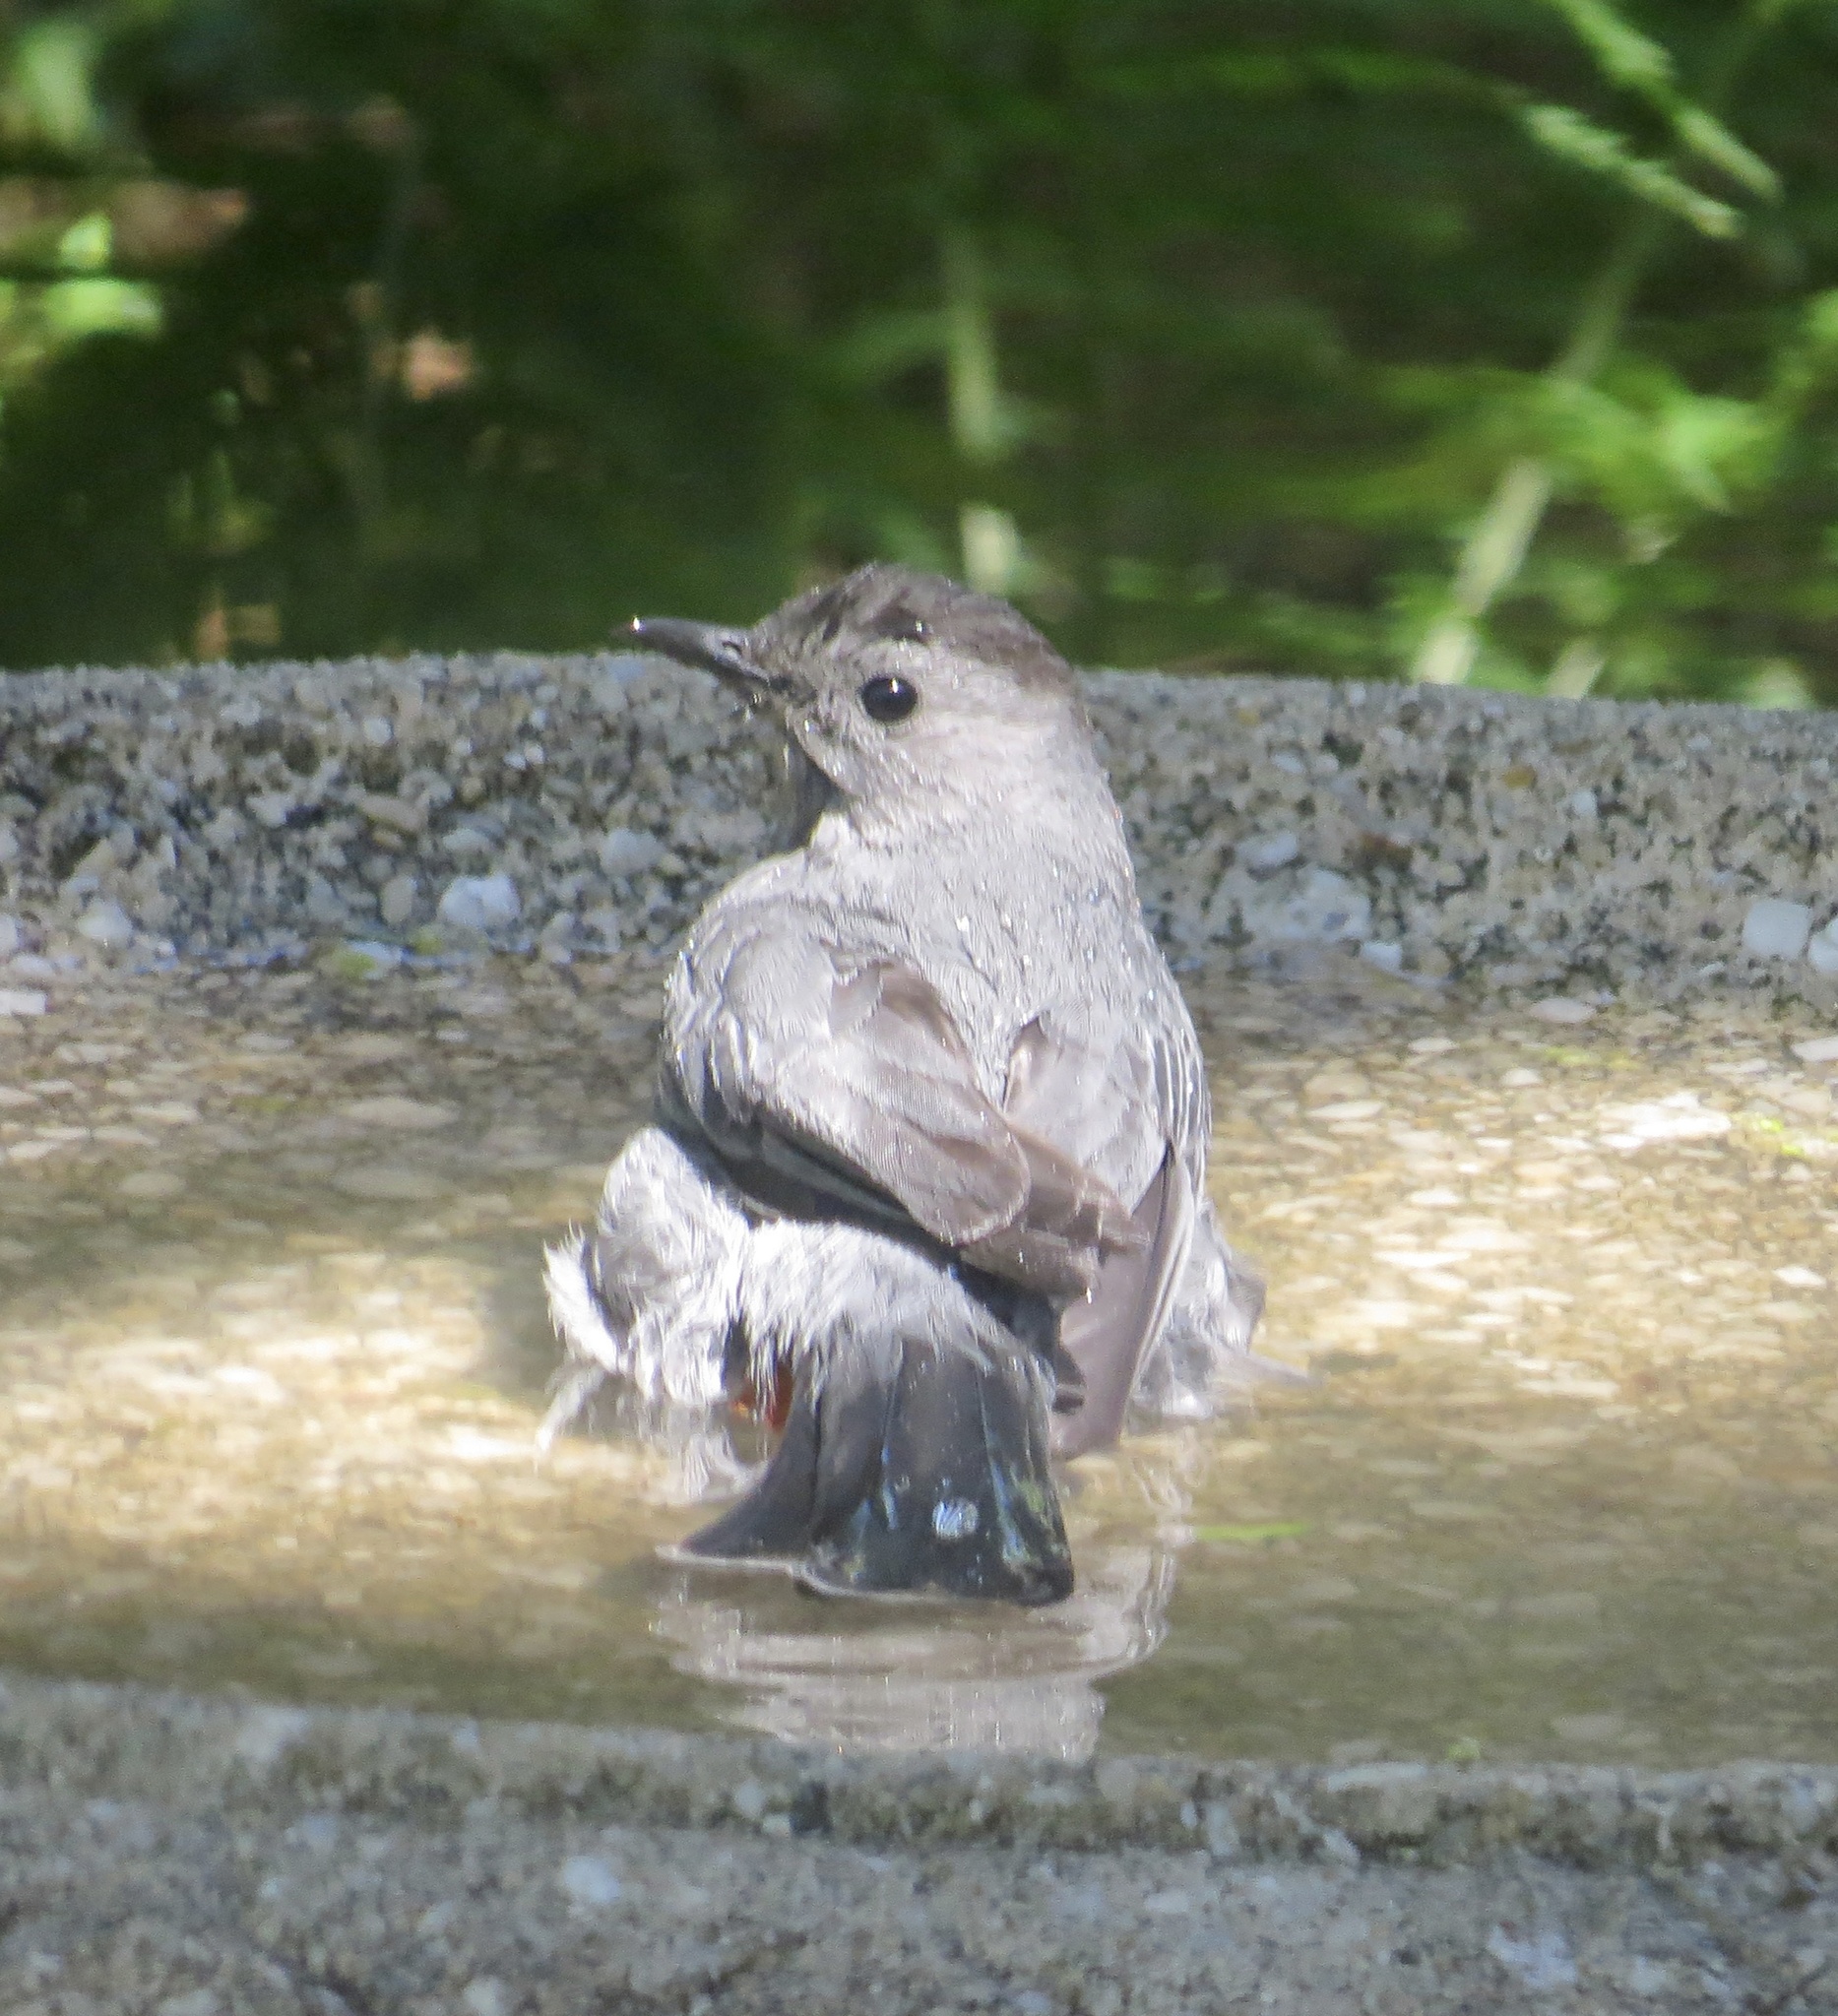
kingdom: Animalia
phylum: Chordata
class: Aves
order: Passeriformes
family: Mimidae
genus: Dumetella
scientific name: Dumetella carolinensis
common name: Gray catbird
